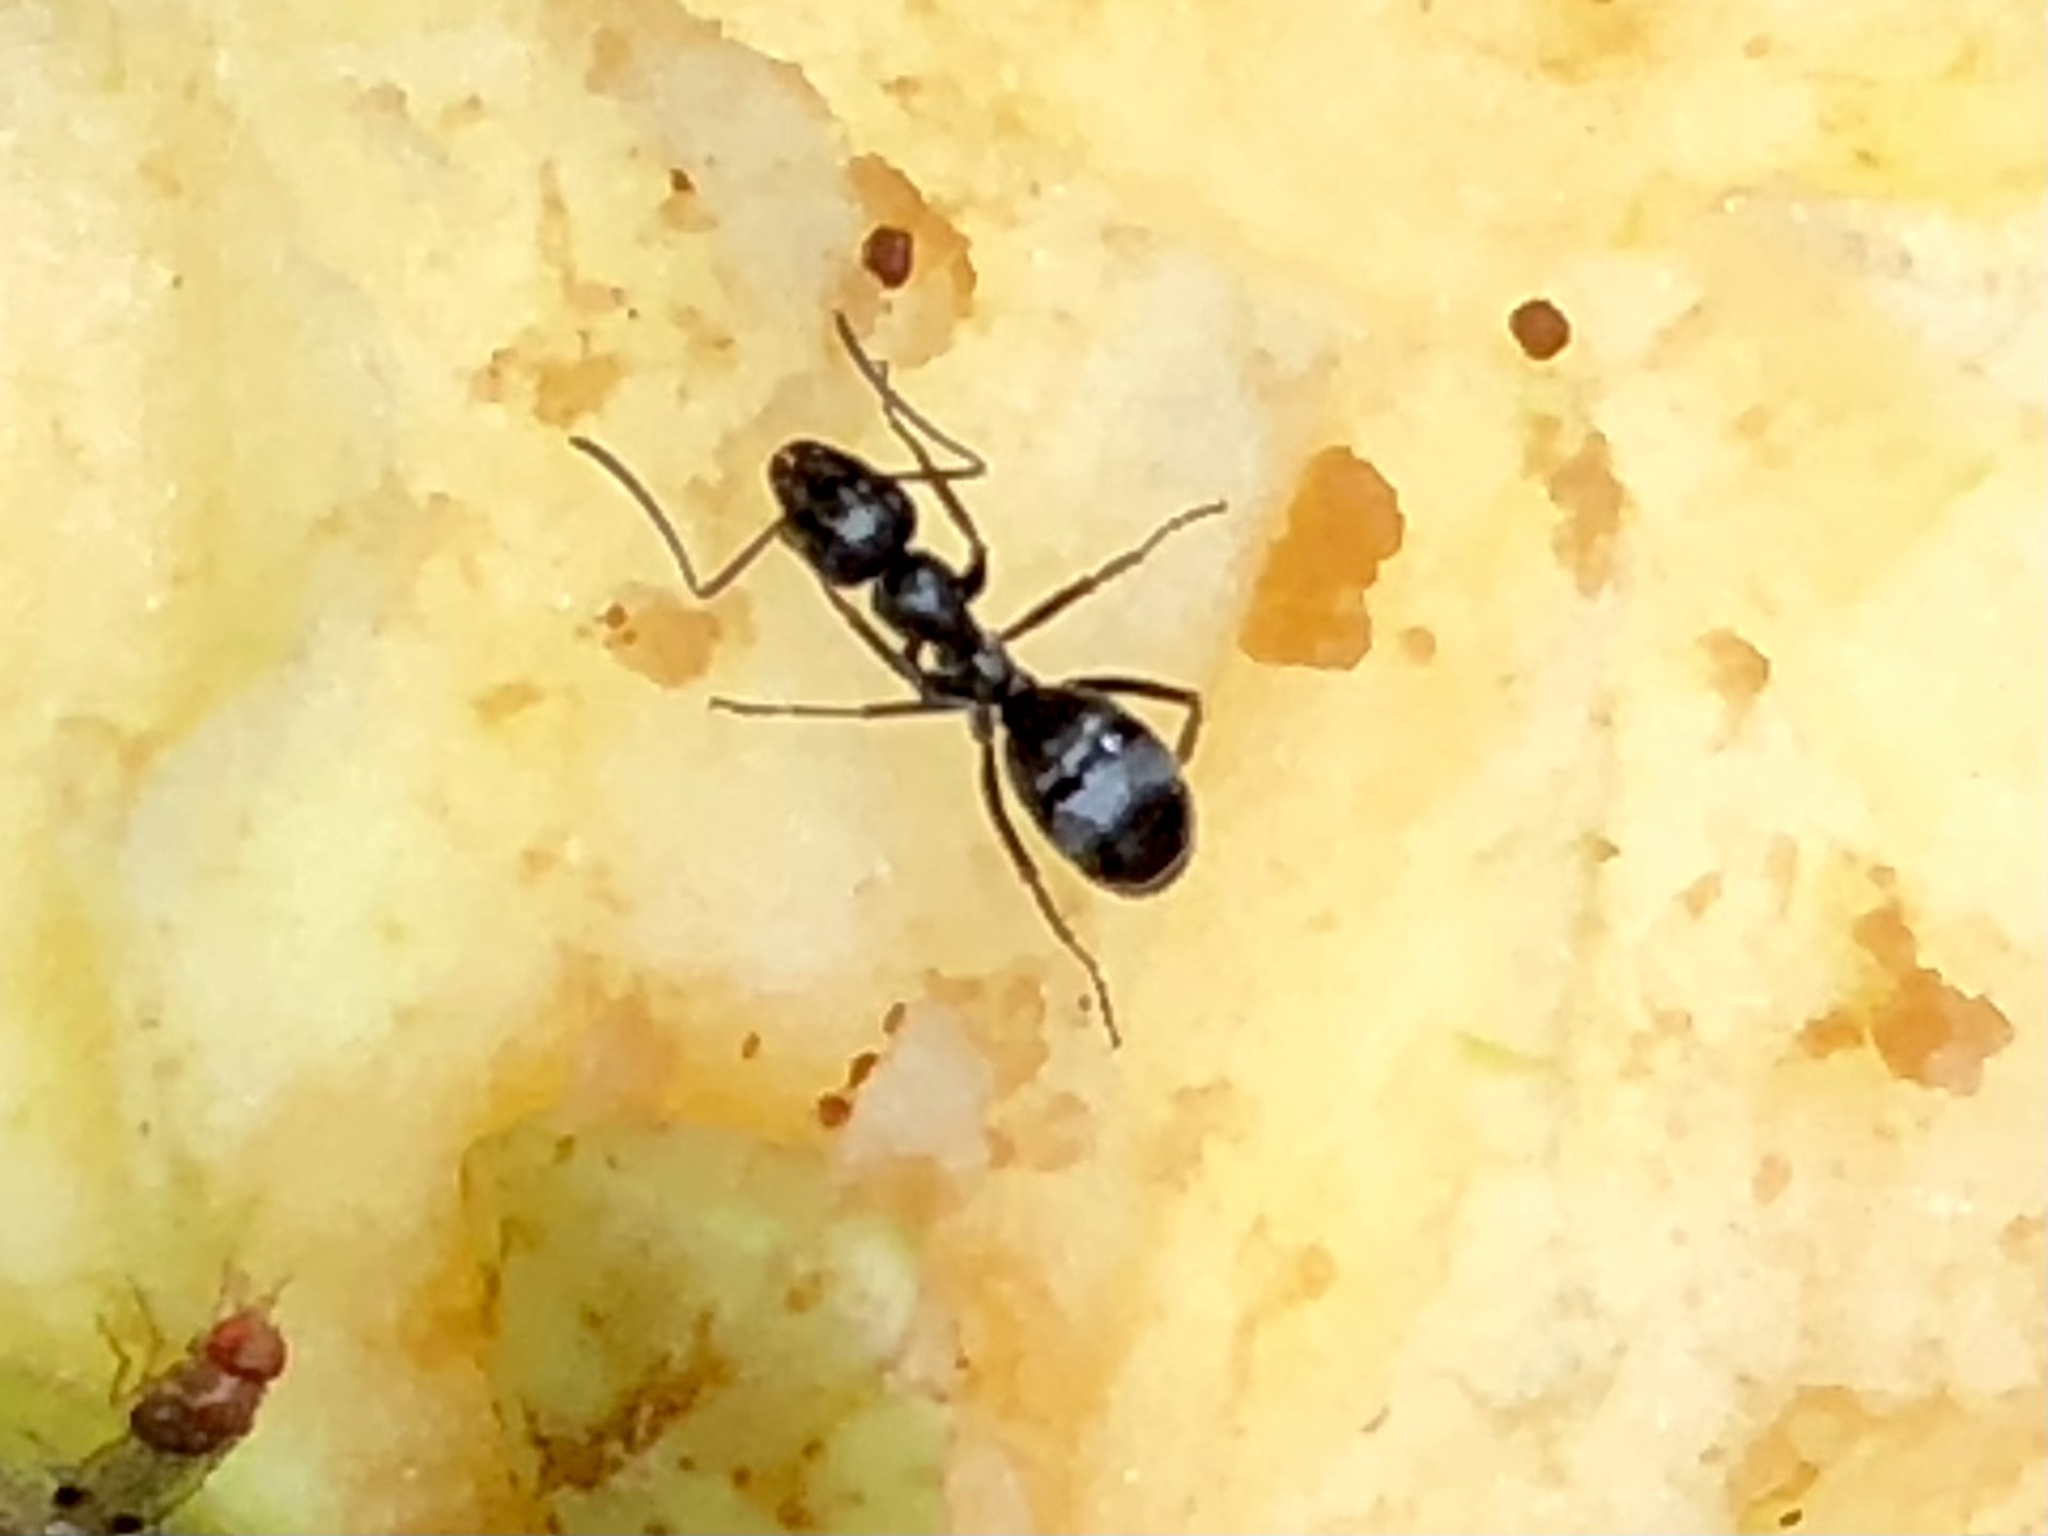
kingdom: Animalia
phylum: Arthropoda
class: Insecta
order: Hymenoptera
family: Formicidae
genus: Formica
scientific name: Formica subsericea
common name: Silky field ant
